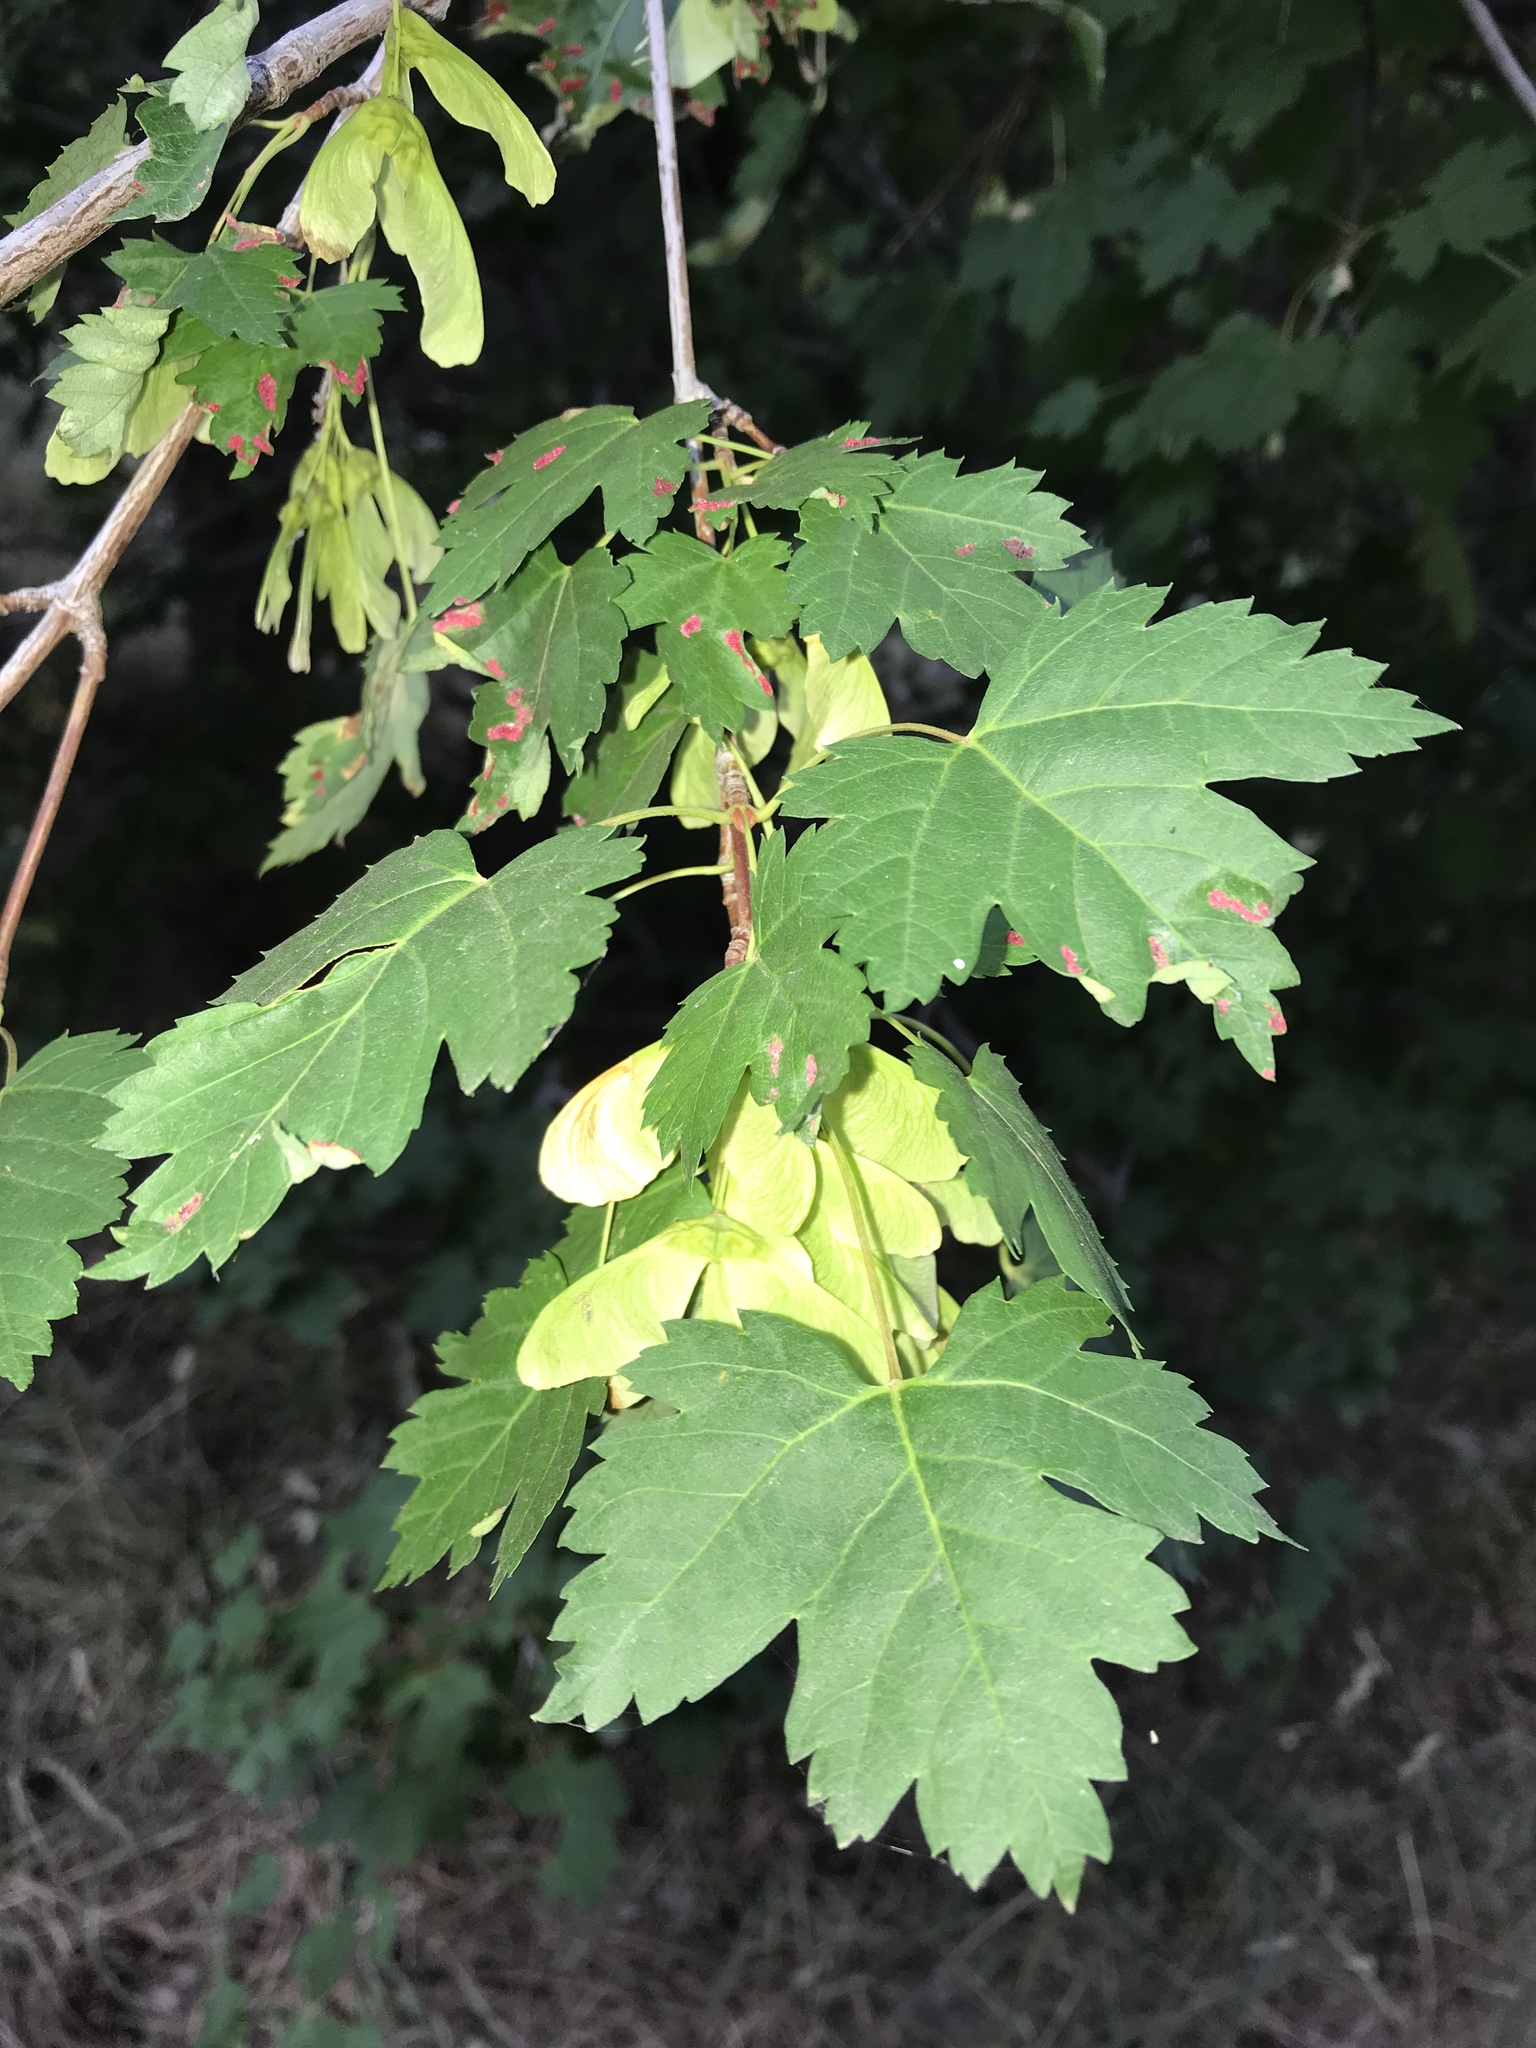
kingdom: Plantae
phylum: Tracheophyta
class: Magnoliopsida
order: Sapindales
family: Sapindaceae
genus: Acer
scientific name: Acer glabrum
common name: Rocky mountain maple
